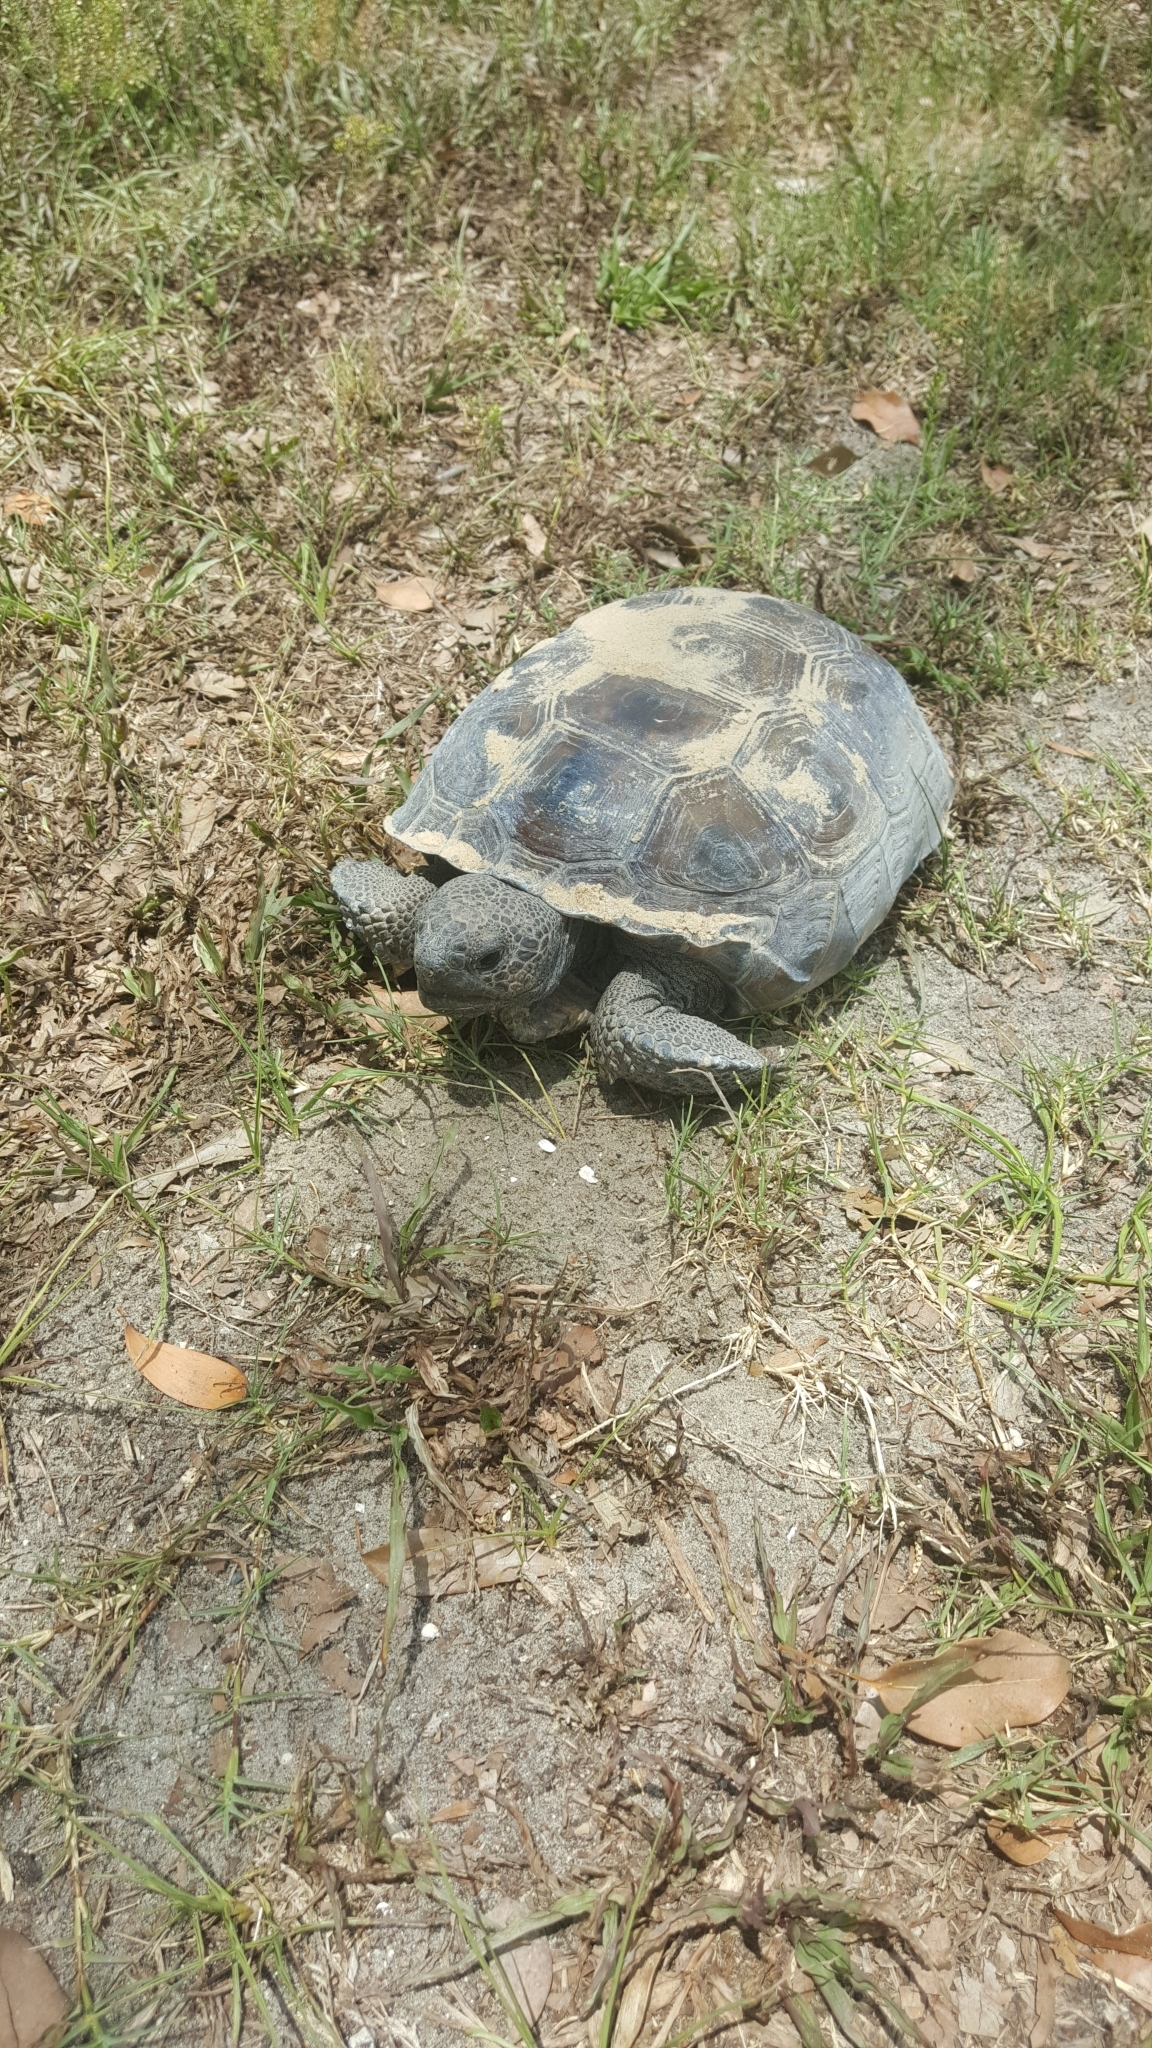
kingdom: Animalia
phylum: Chordata
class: Testudines
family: Testudinidae
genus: Gopherus
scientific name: Gopherus polyphemus
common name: Florida gopher tortoise
